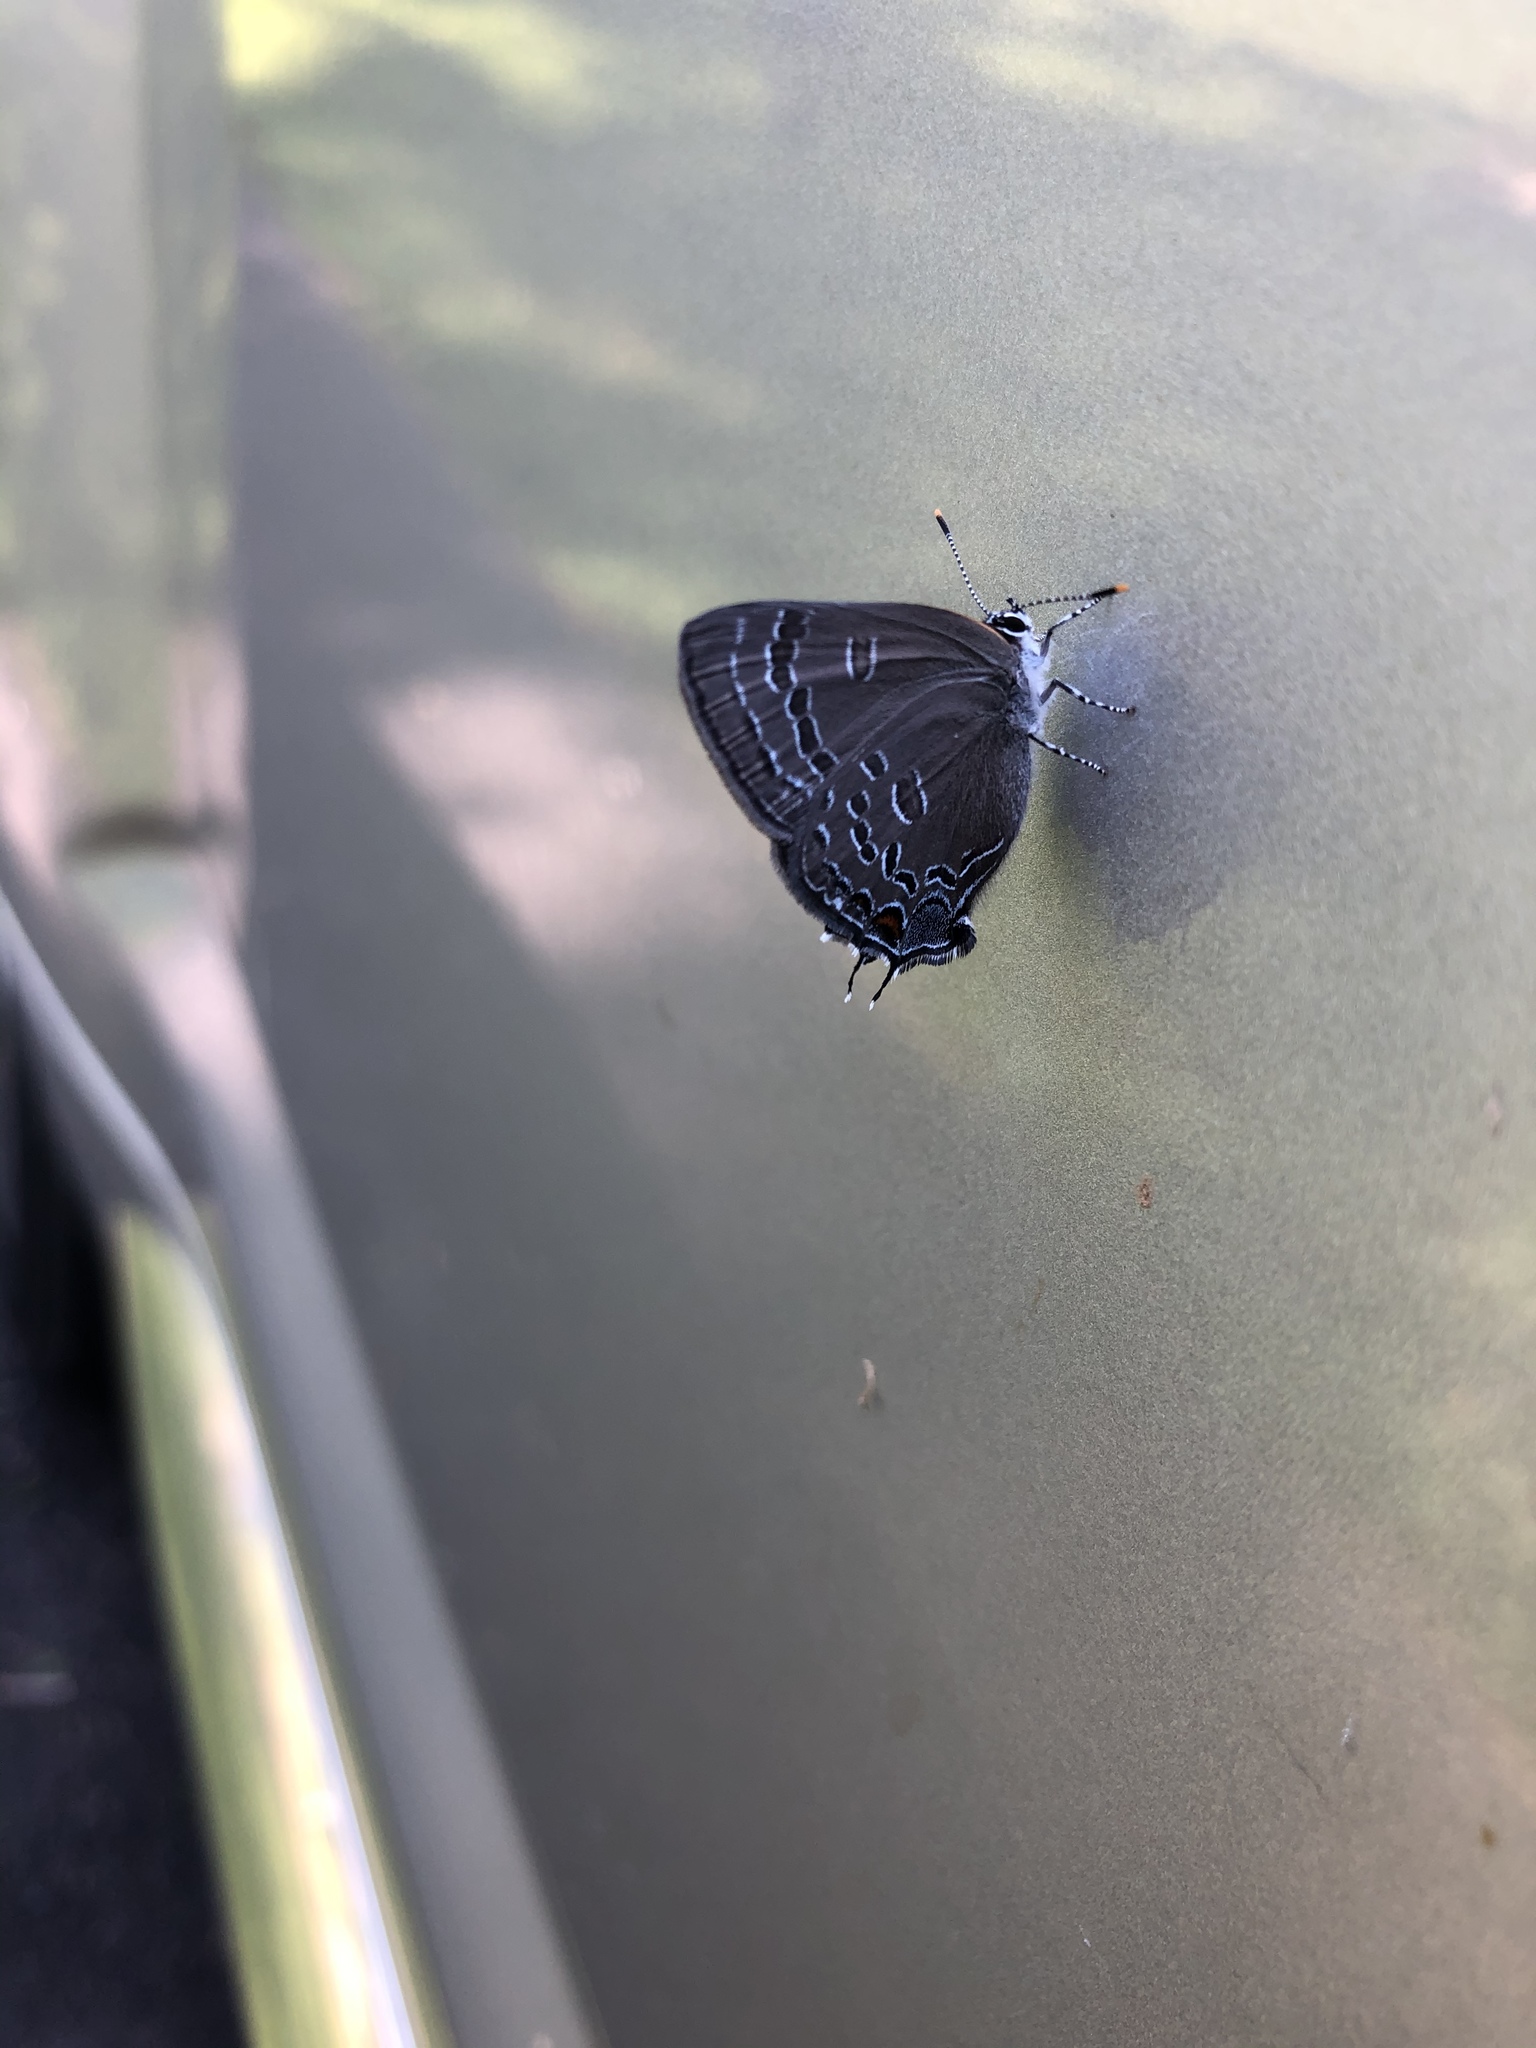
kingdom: Animalia
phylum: Arthropoda
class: Insecta
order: Lepidoptera
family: Lycaenidae
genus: Satyrium
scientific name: Satyrium calanus
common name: Banded hairstreak
